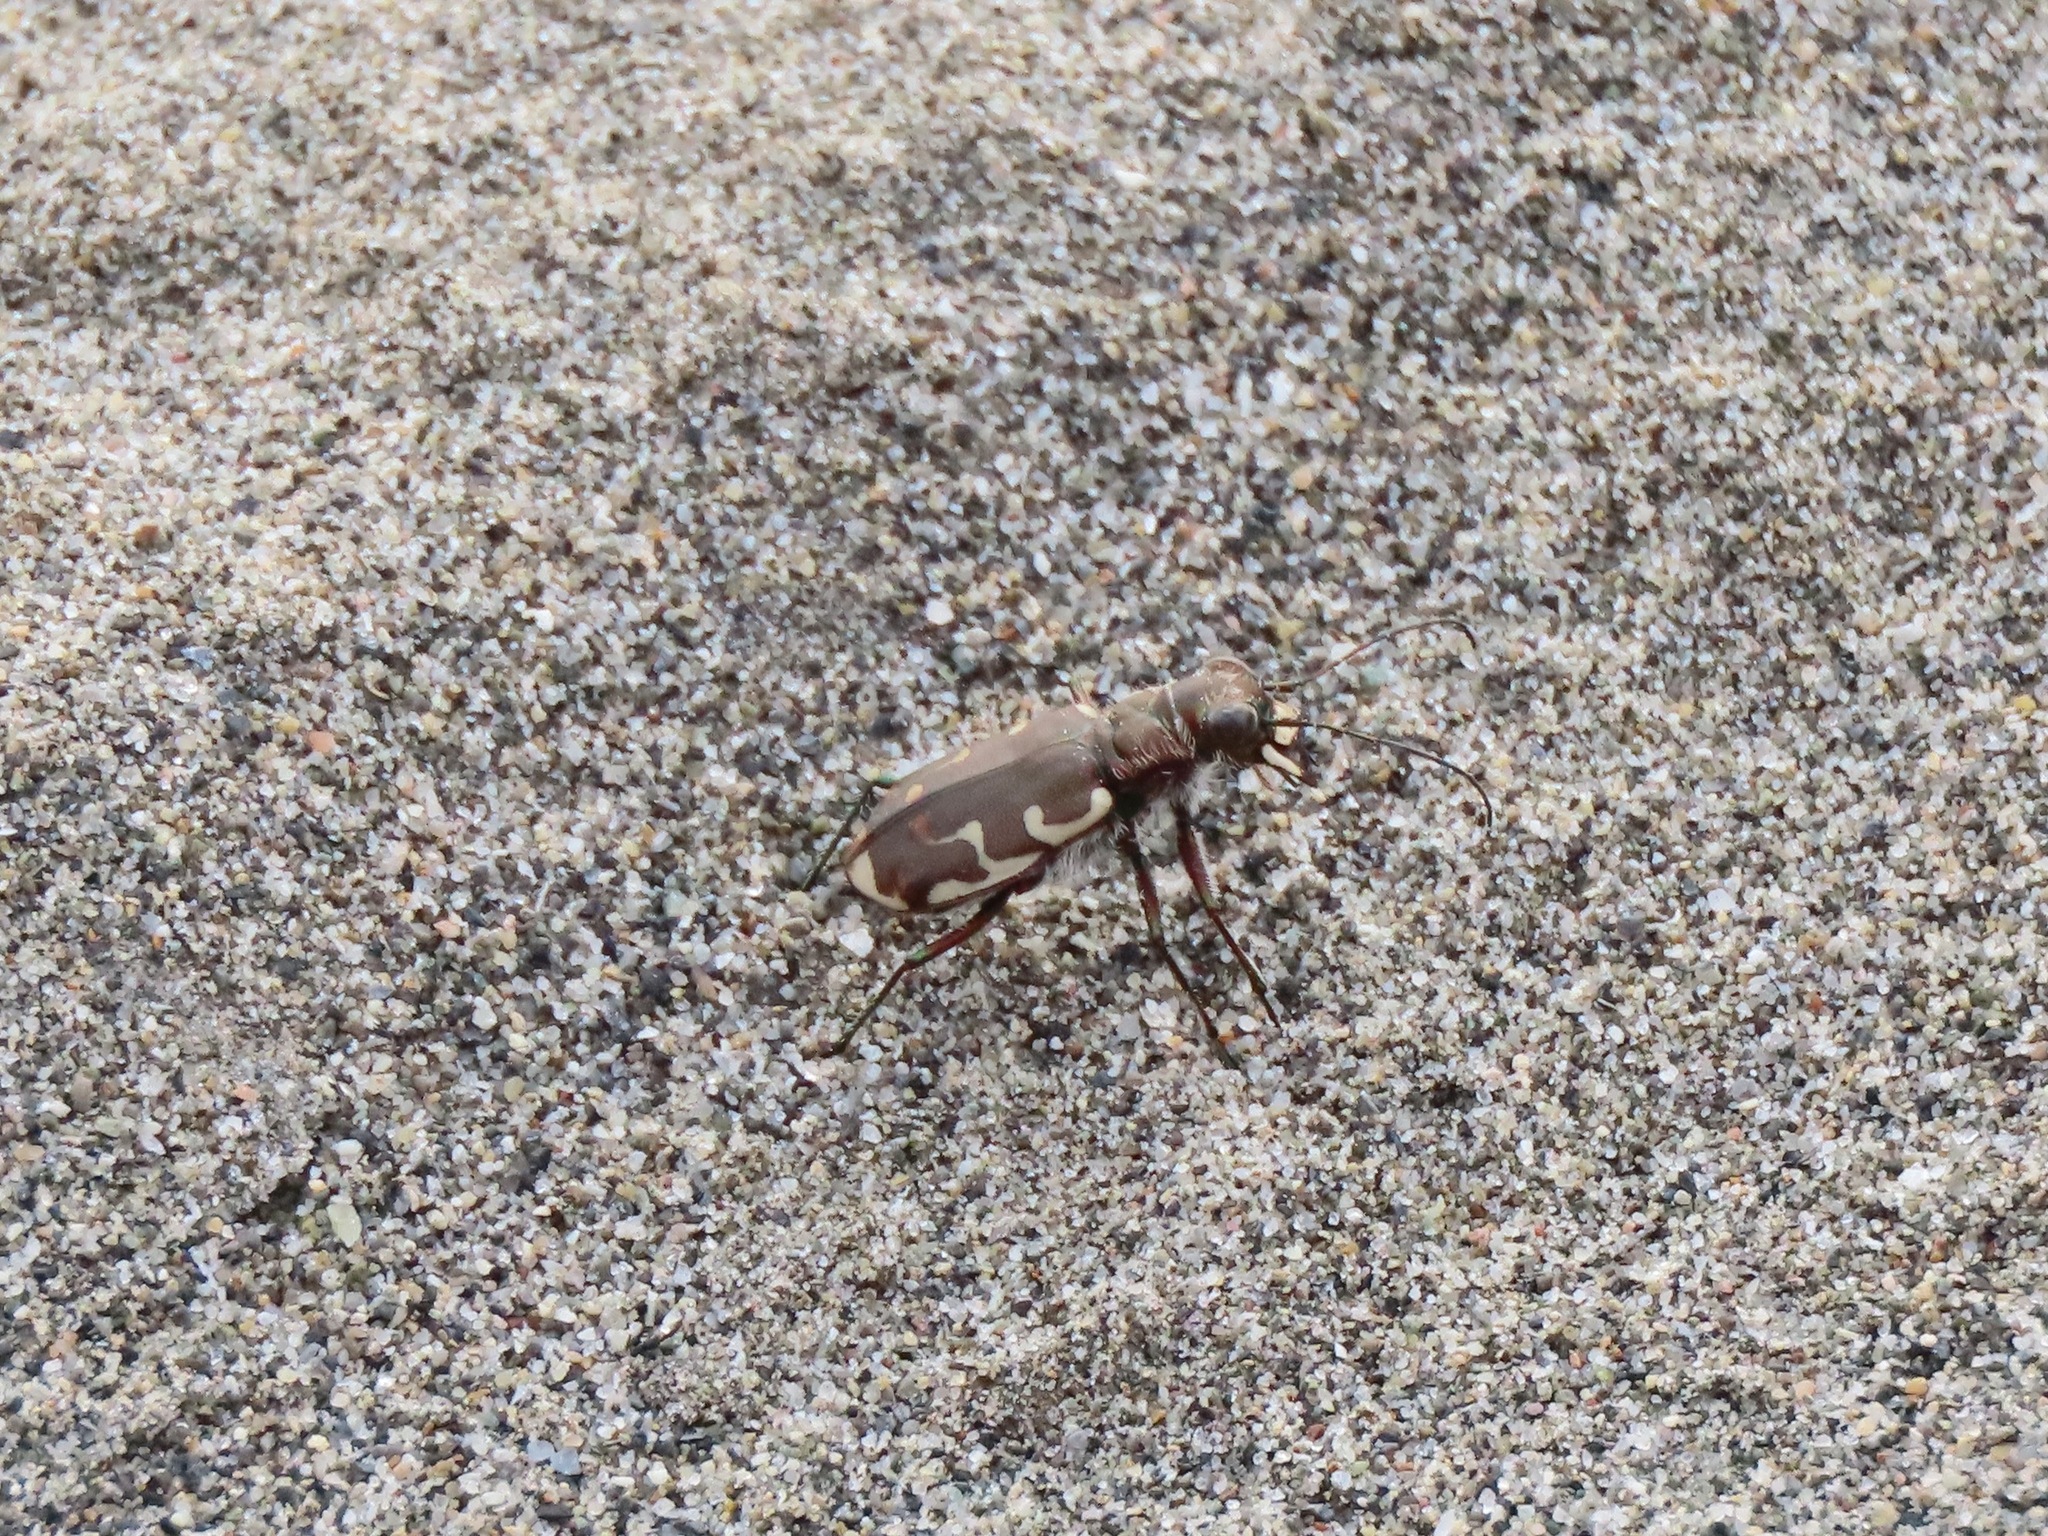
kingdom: Animalia
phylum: Arthropoda
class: Insecta
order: Coleoptera
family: Carabidae
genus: Cicindela
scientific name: Cicindela repanda
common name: Bronzed tiger beetle
